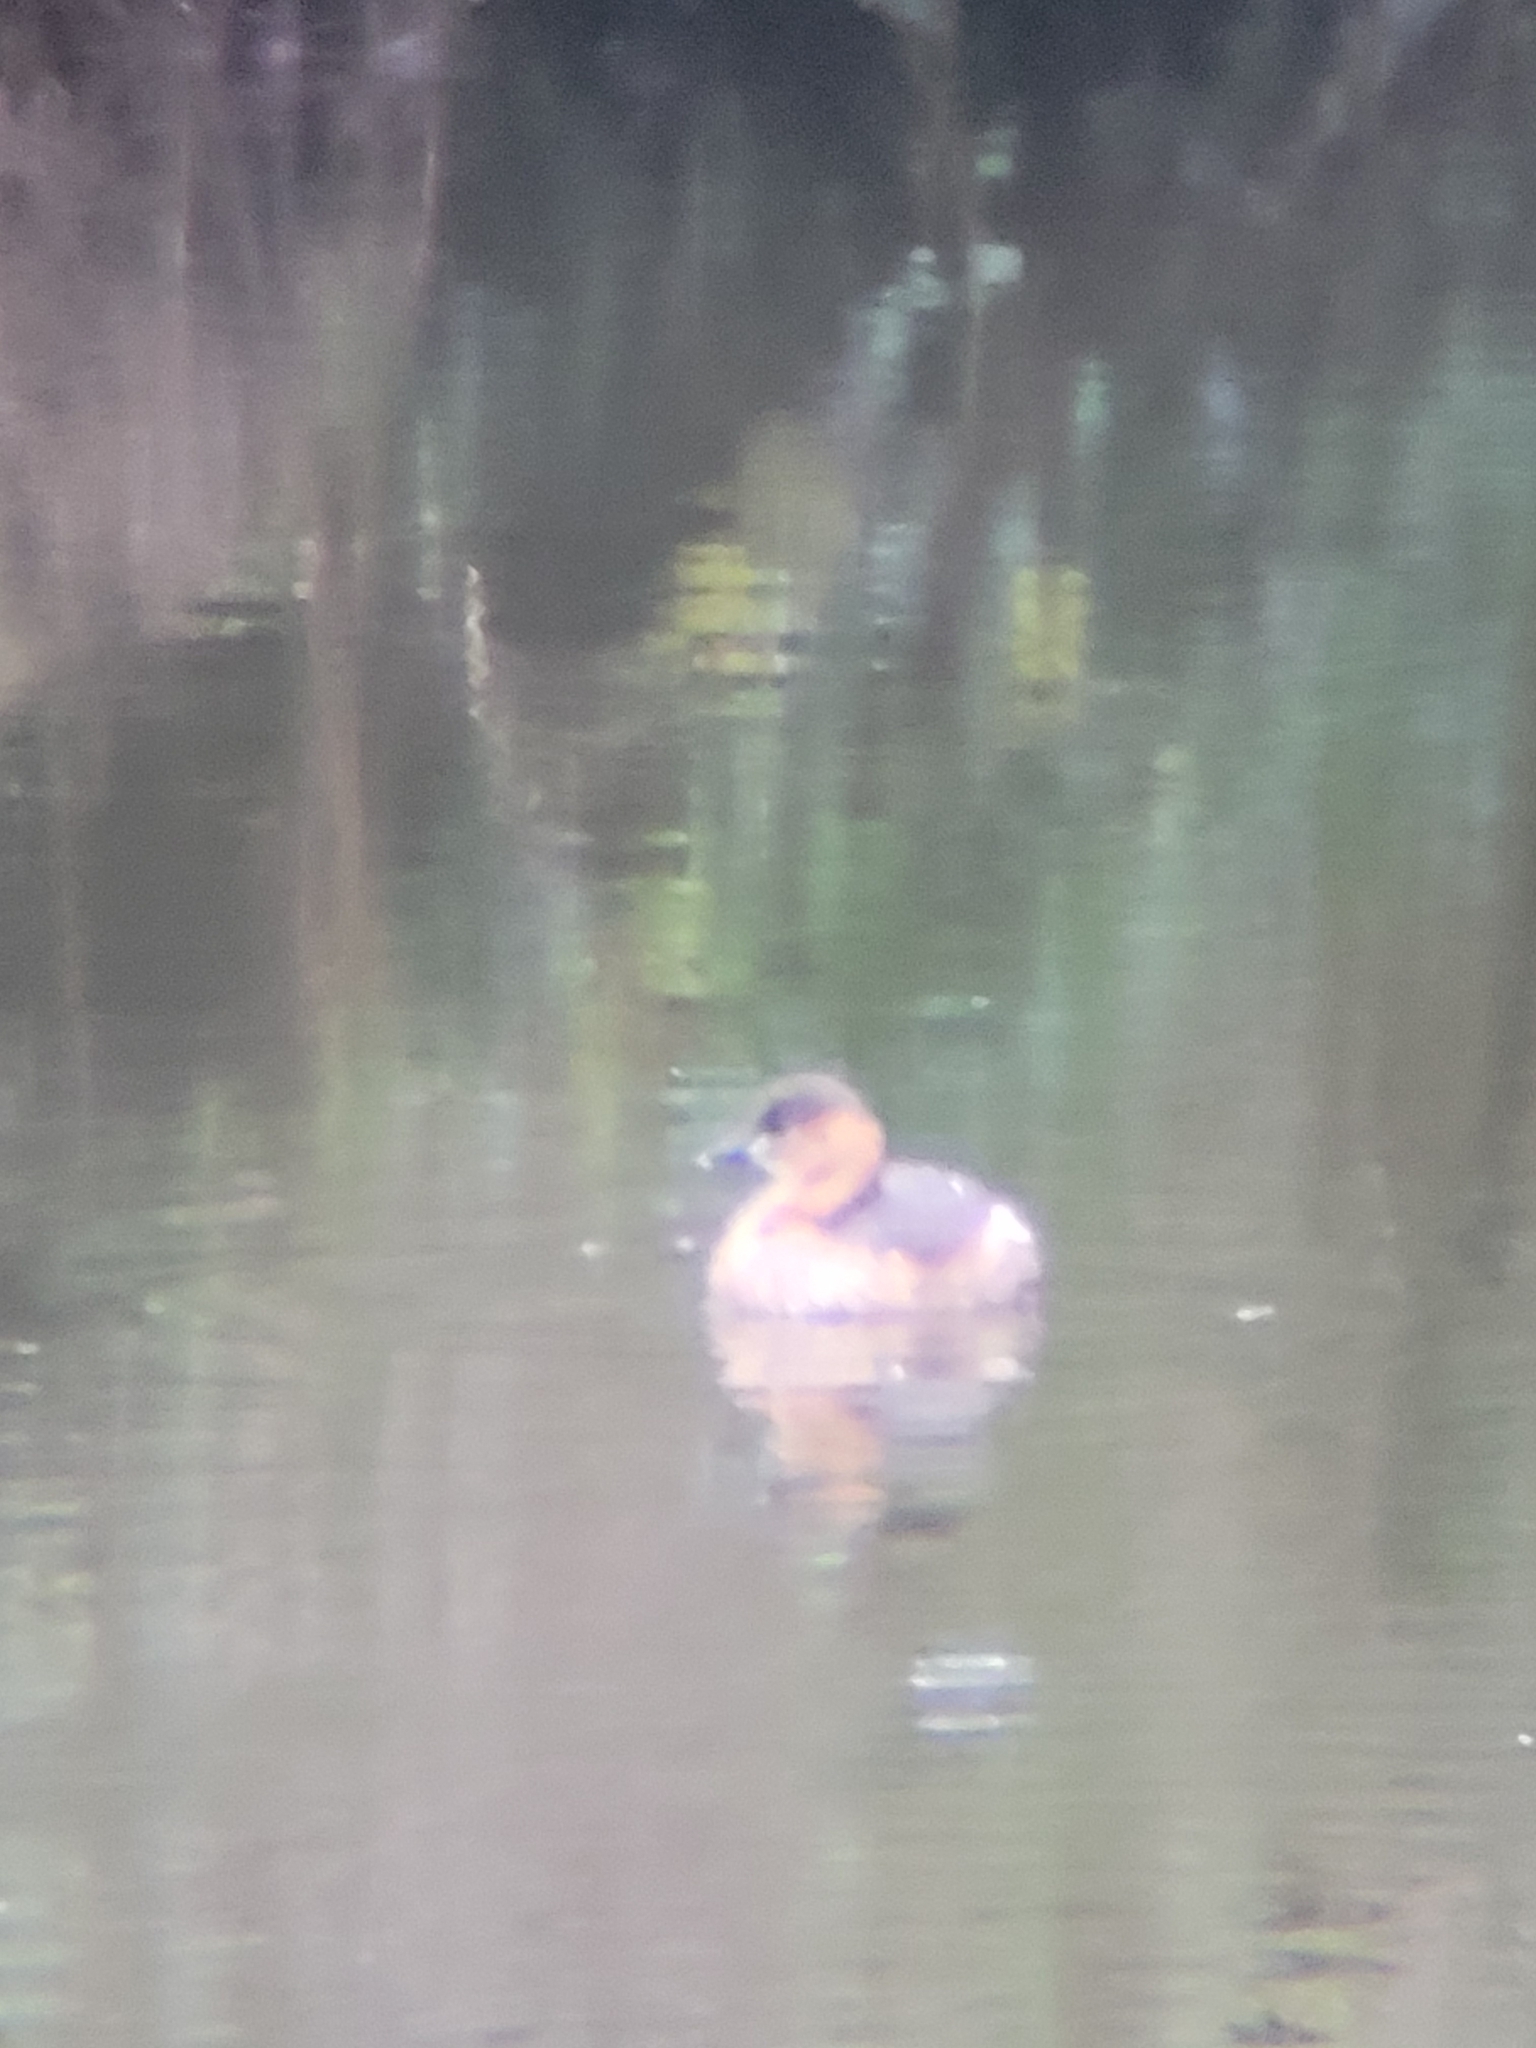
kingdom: Animalia
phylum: Chordata
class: Aves
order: Podicipediformes
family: Podicipedidae
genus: Tachybaptus
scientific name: Tachybaptus ruficollis
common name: Little grebe
